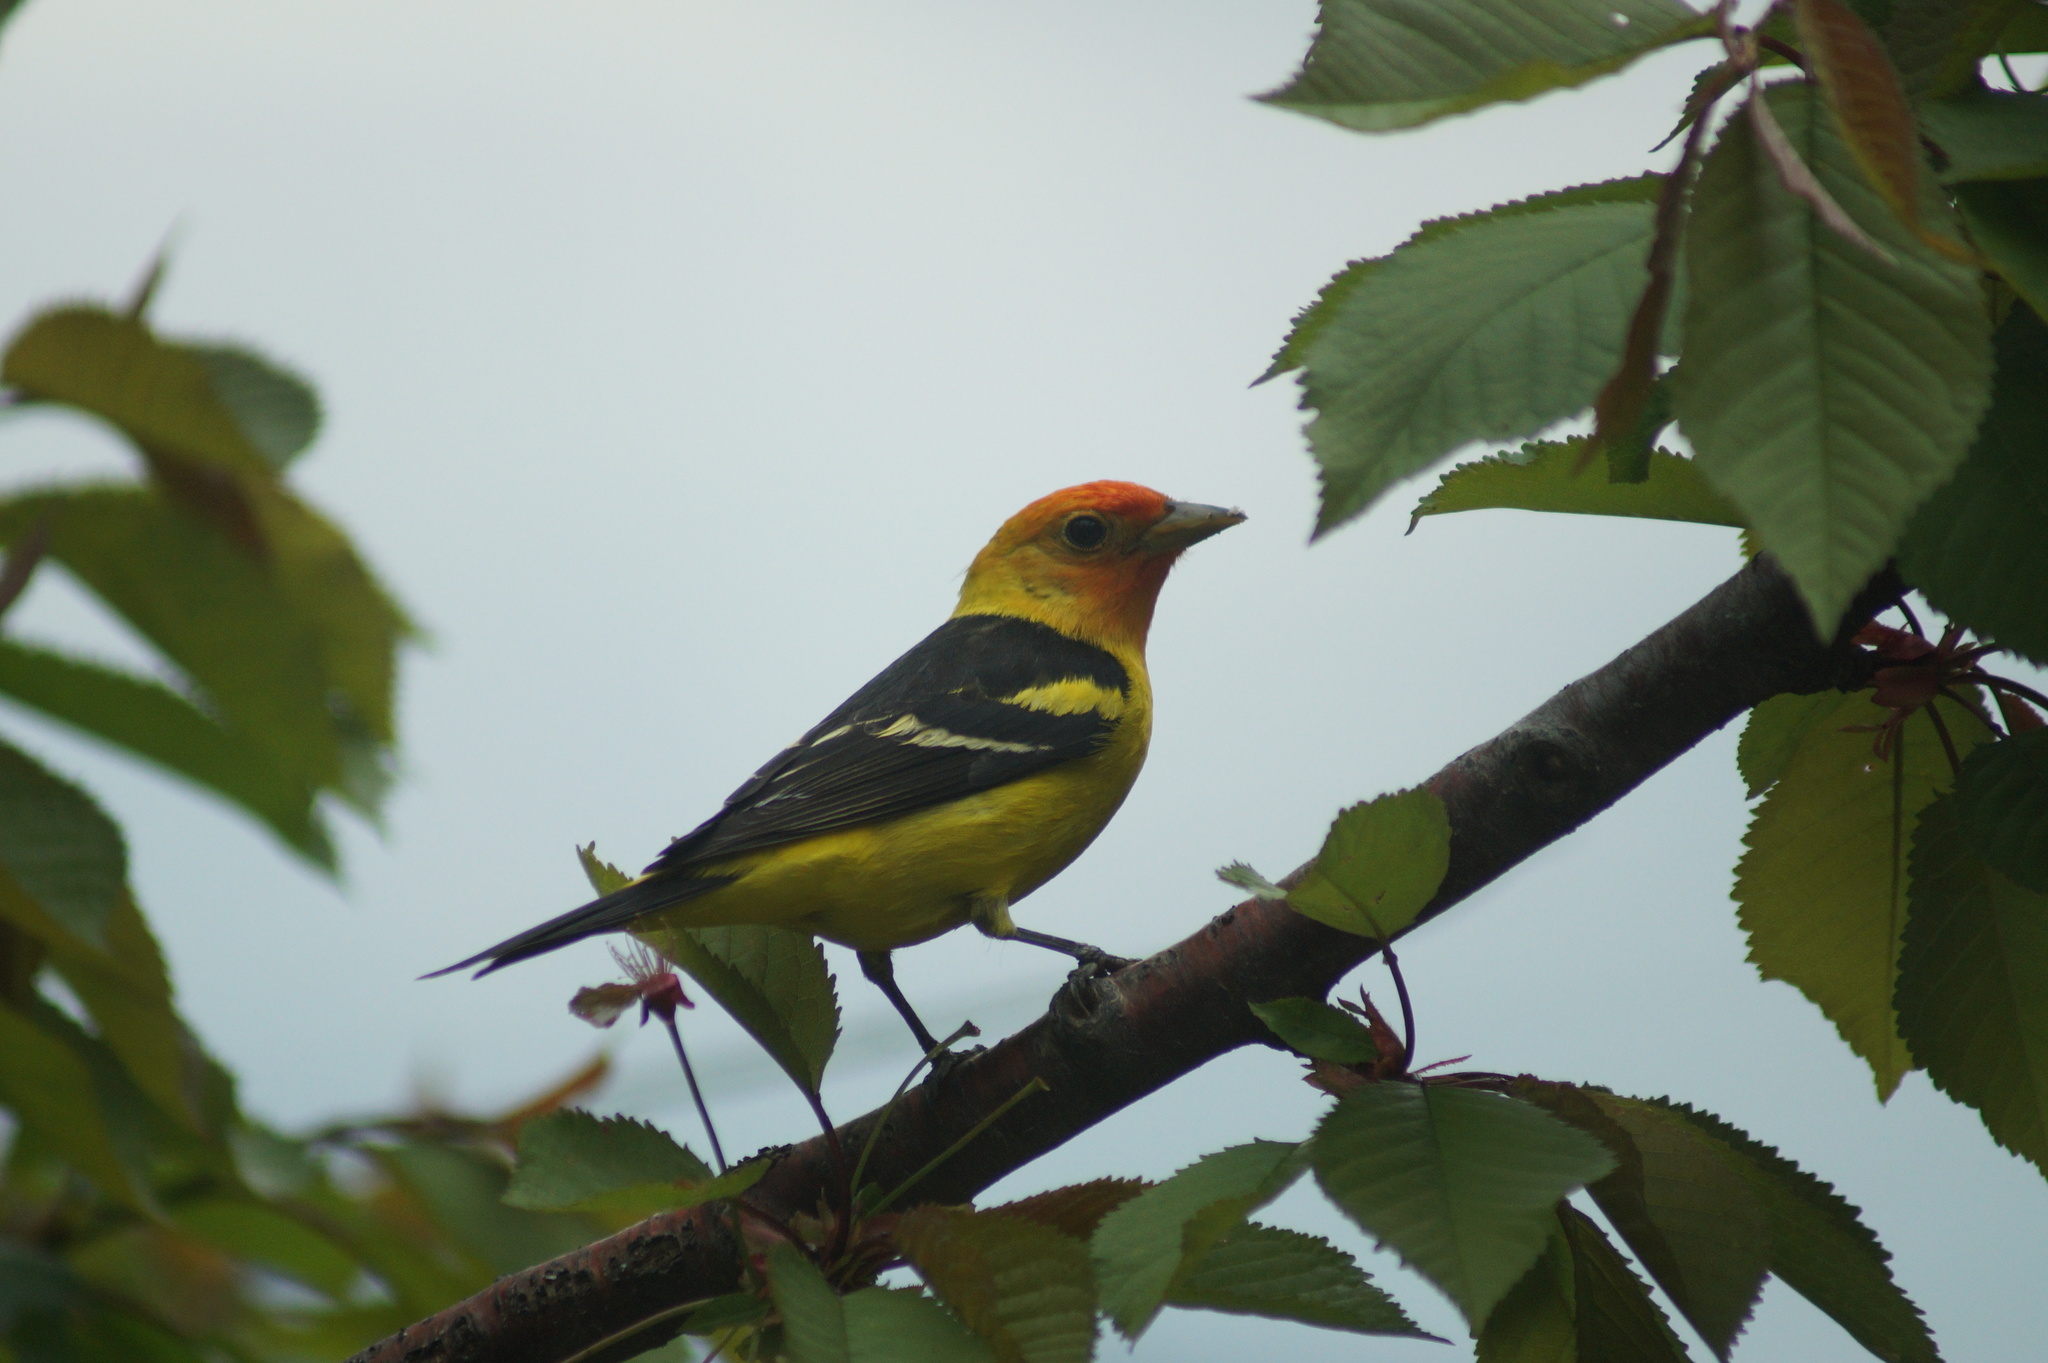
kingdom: Animalia
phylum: Chordata
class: Aves
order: Passeriformes
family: Cardinalidae
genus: Piranga
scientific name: Piranga ludoviciana
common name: Western tanager
